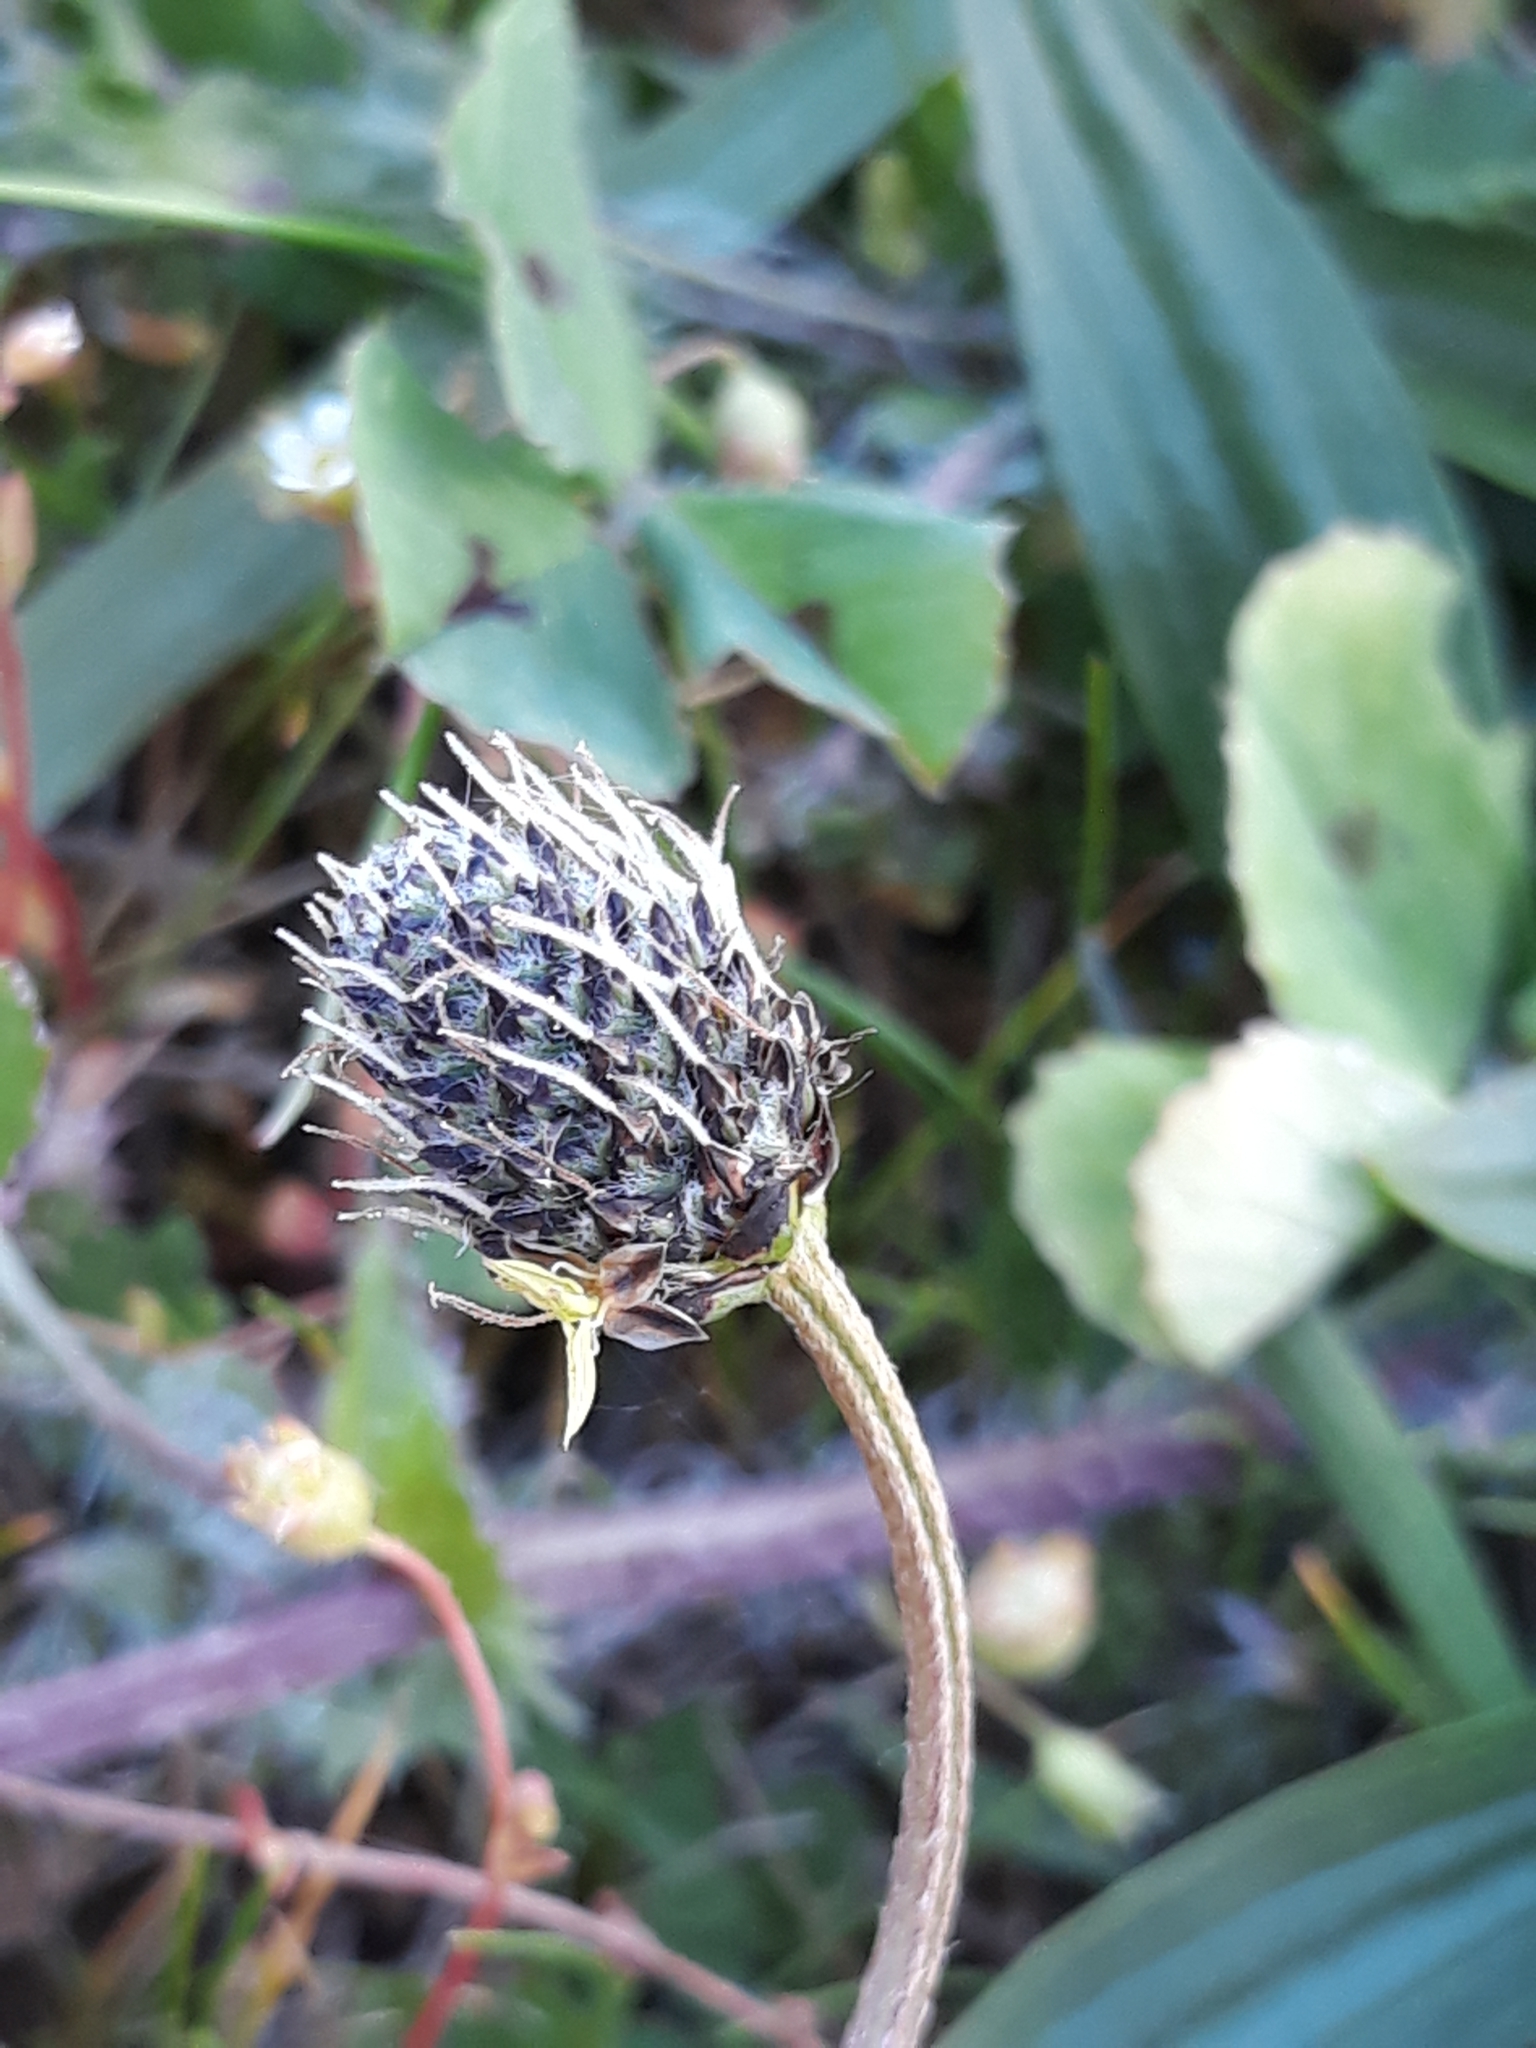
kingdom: Plantae
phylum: Tracheophyta
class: Magnoliopsida
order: Lamiales
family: Plantaginaceae
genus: Plantago
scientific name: Plantago lanceolata
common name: Ribwort plantain
